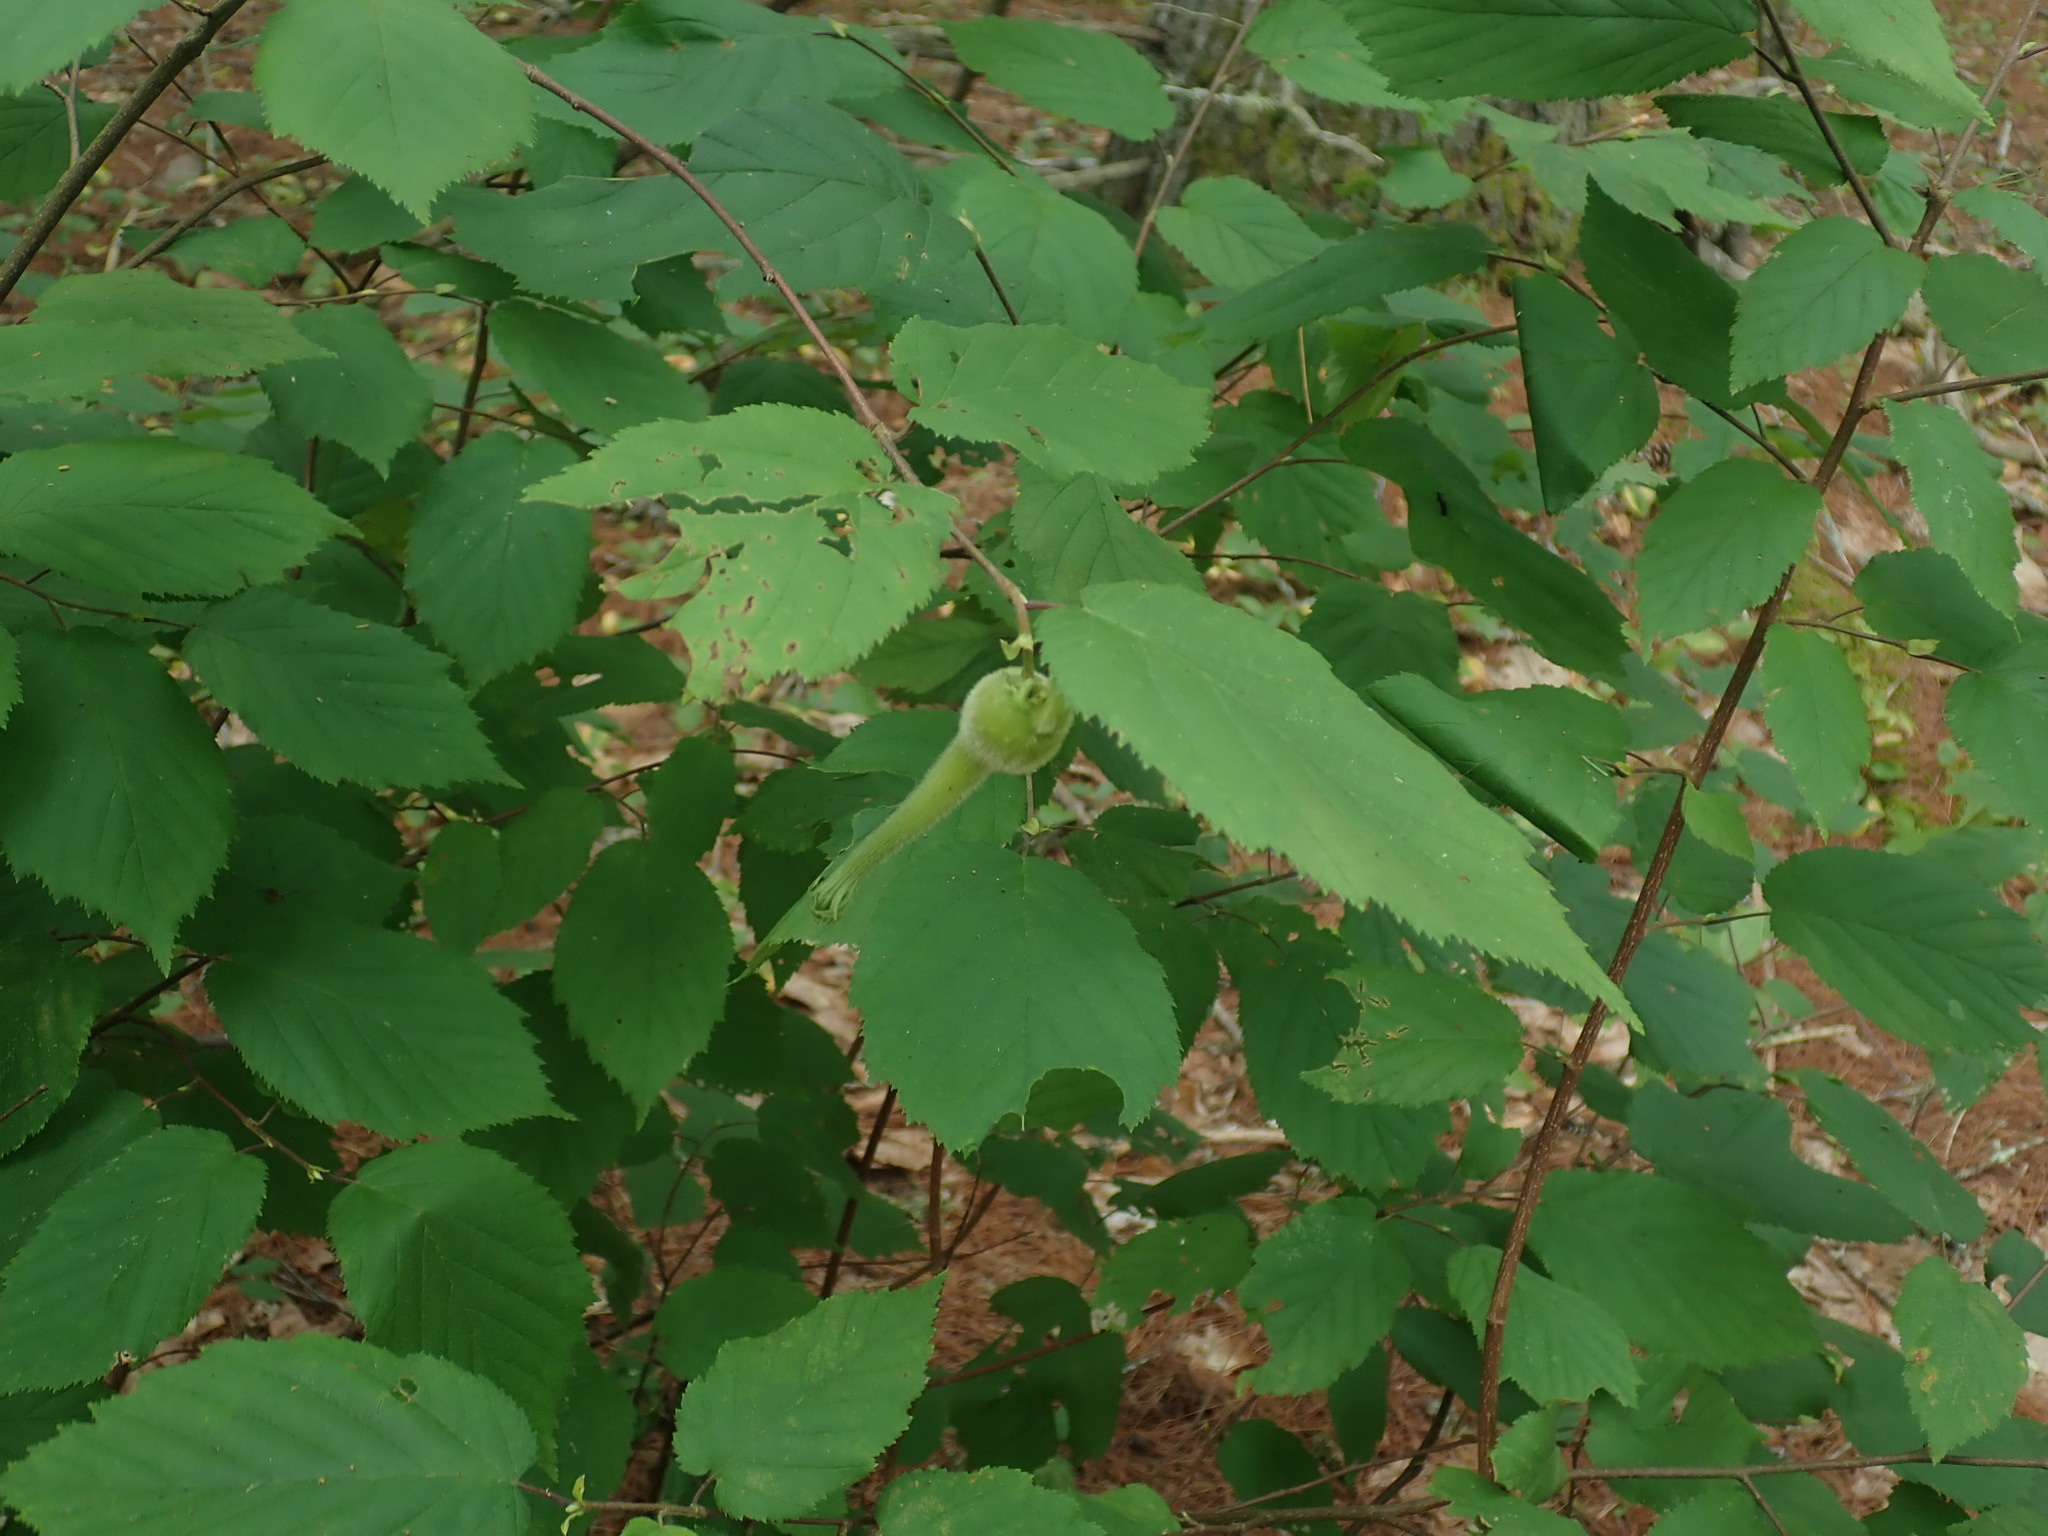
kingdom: Plantae
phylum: Tracheophyta
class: Magnoliopsida
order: Fagales
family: Betulaceae
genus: Corylus
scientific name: Corylus cornuta
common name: Beaked hazel
